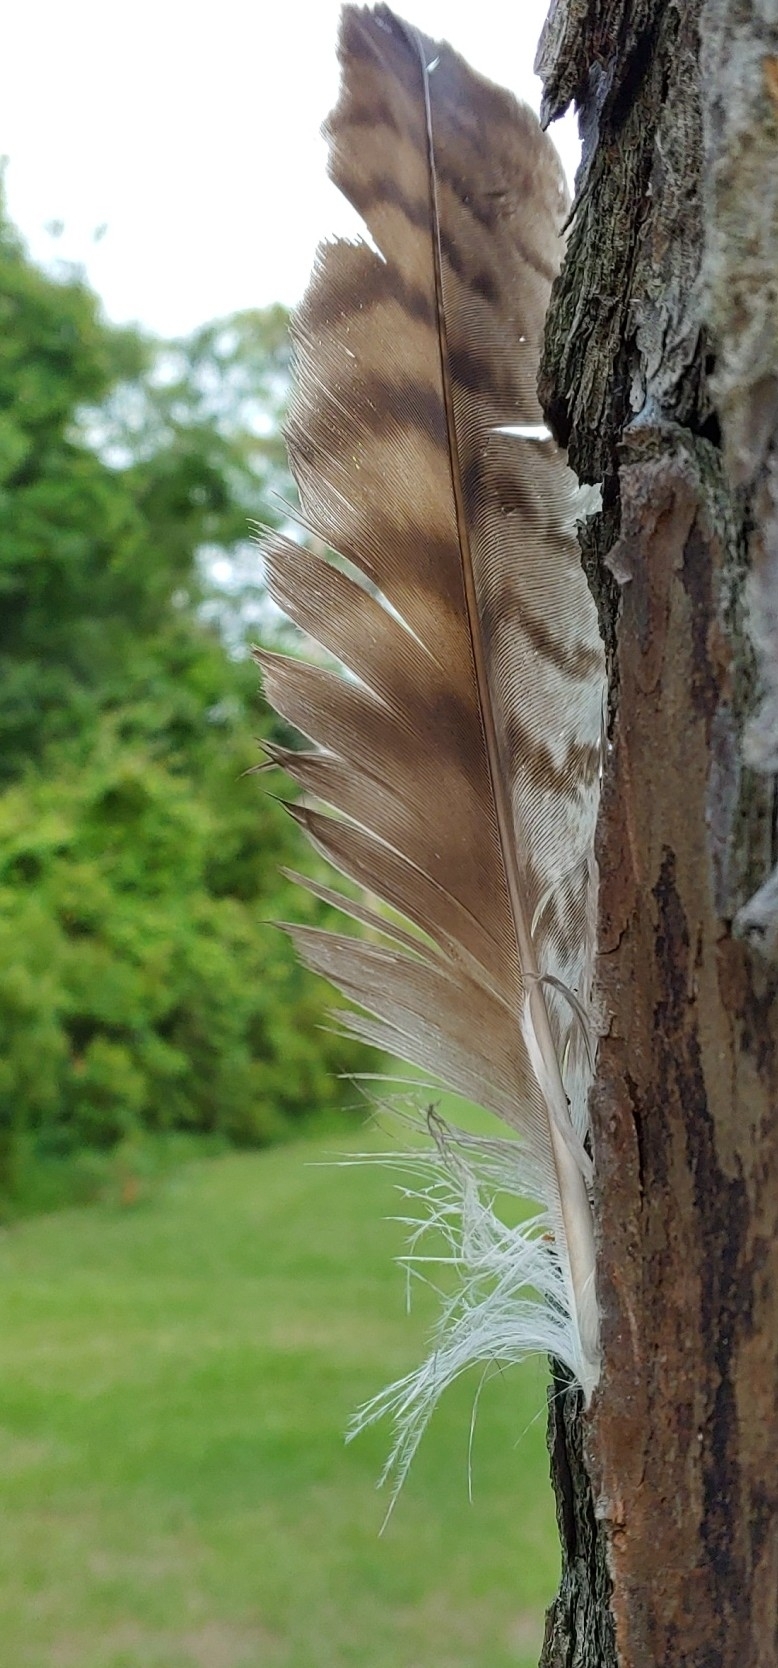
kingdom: Animalia
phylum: Chordata
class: Aves
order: Accipitriformes
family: Accipitridae
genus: Buteo
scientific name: Buteo jamaicensis
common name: Red-tailed hawk
